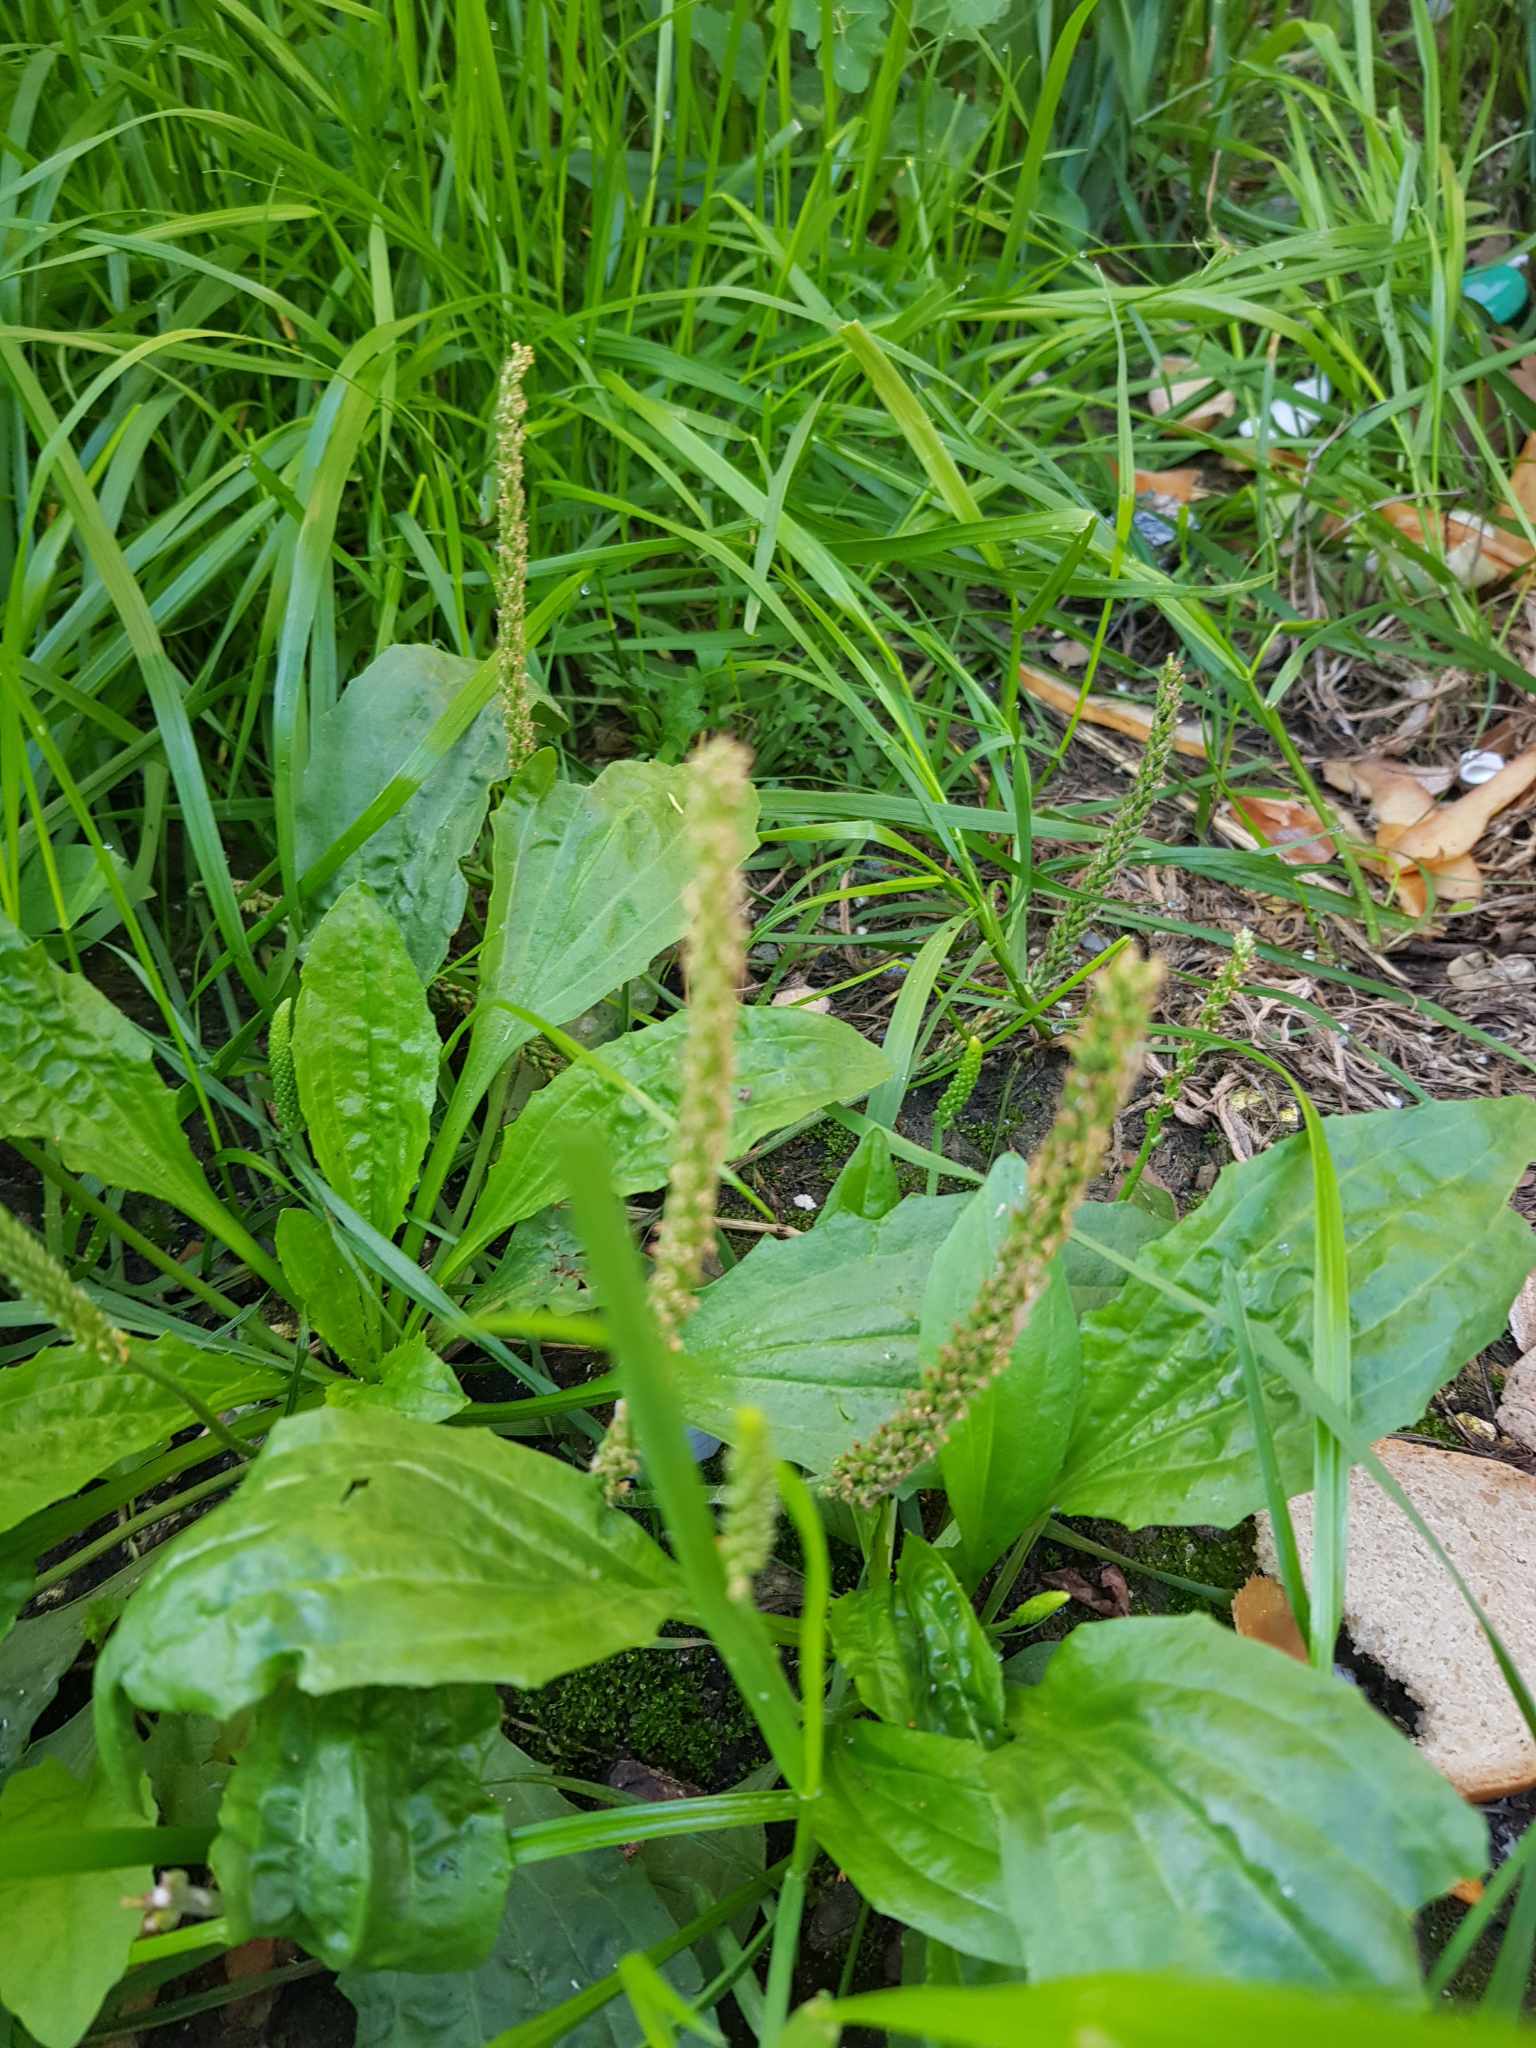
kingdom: Plantae
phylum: Tracheophyta
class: Magnoliopsida
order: Lamiales
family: Plantaginaceae
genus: Plantago
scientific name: Plantago depressa
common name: Depressed plantain
